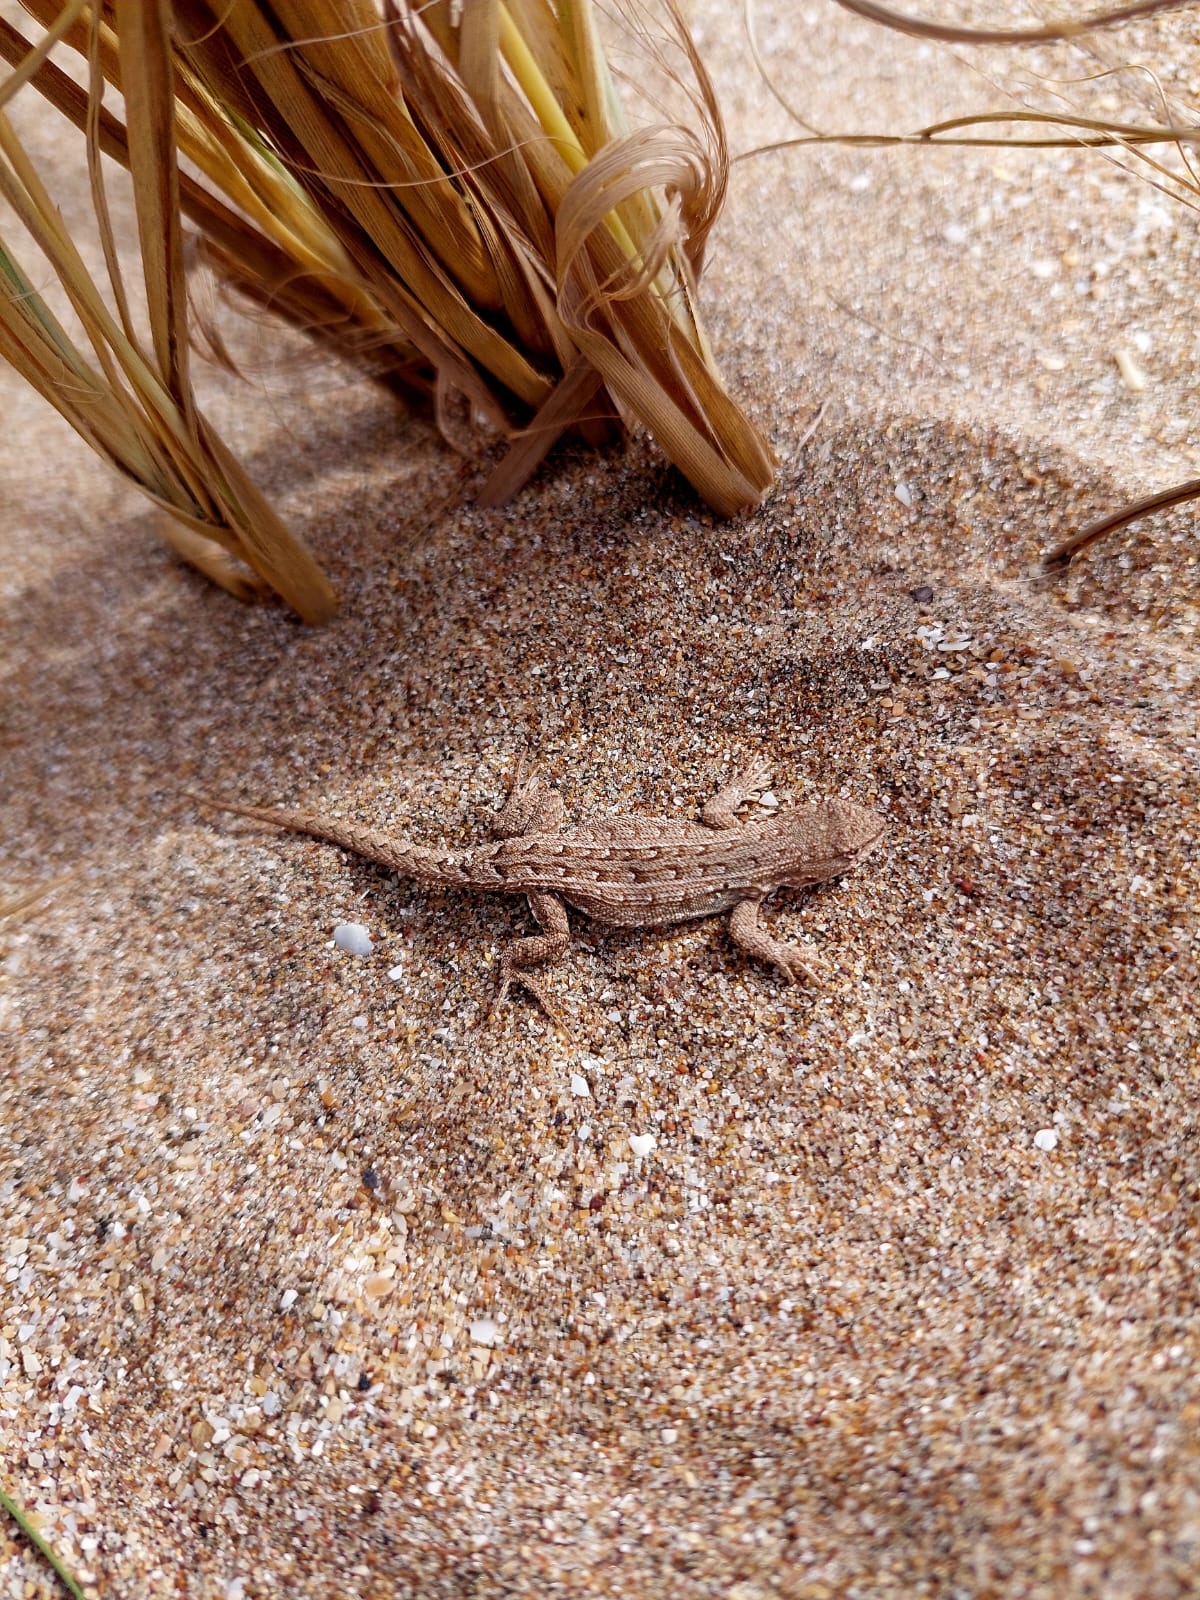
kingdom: Animalia
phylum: Chordata
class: Squamata
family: Liolaemidae
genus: Liolaemus
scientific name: Liolaemus wiegmannii
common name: Wiegmann's tree iguana
